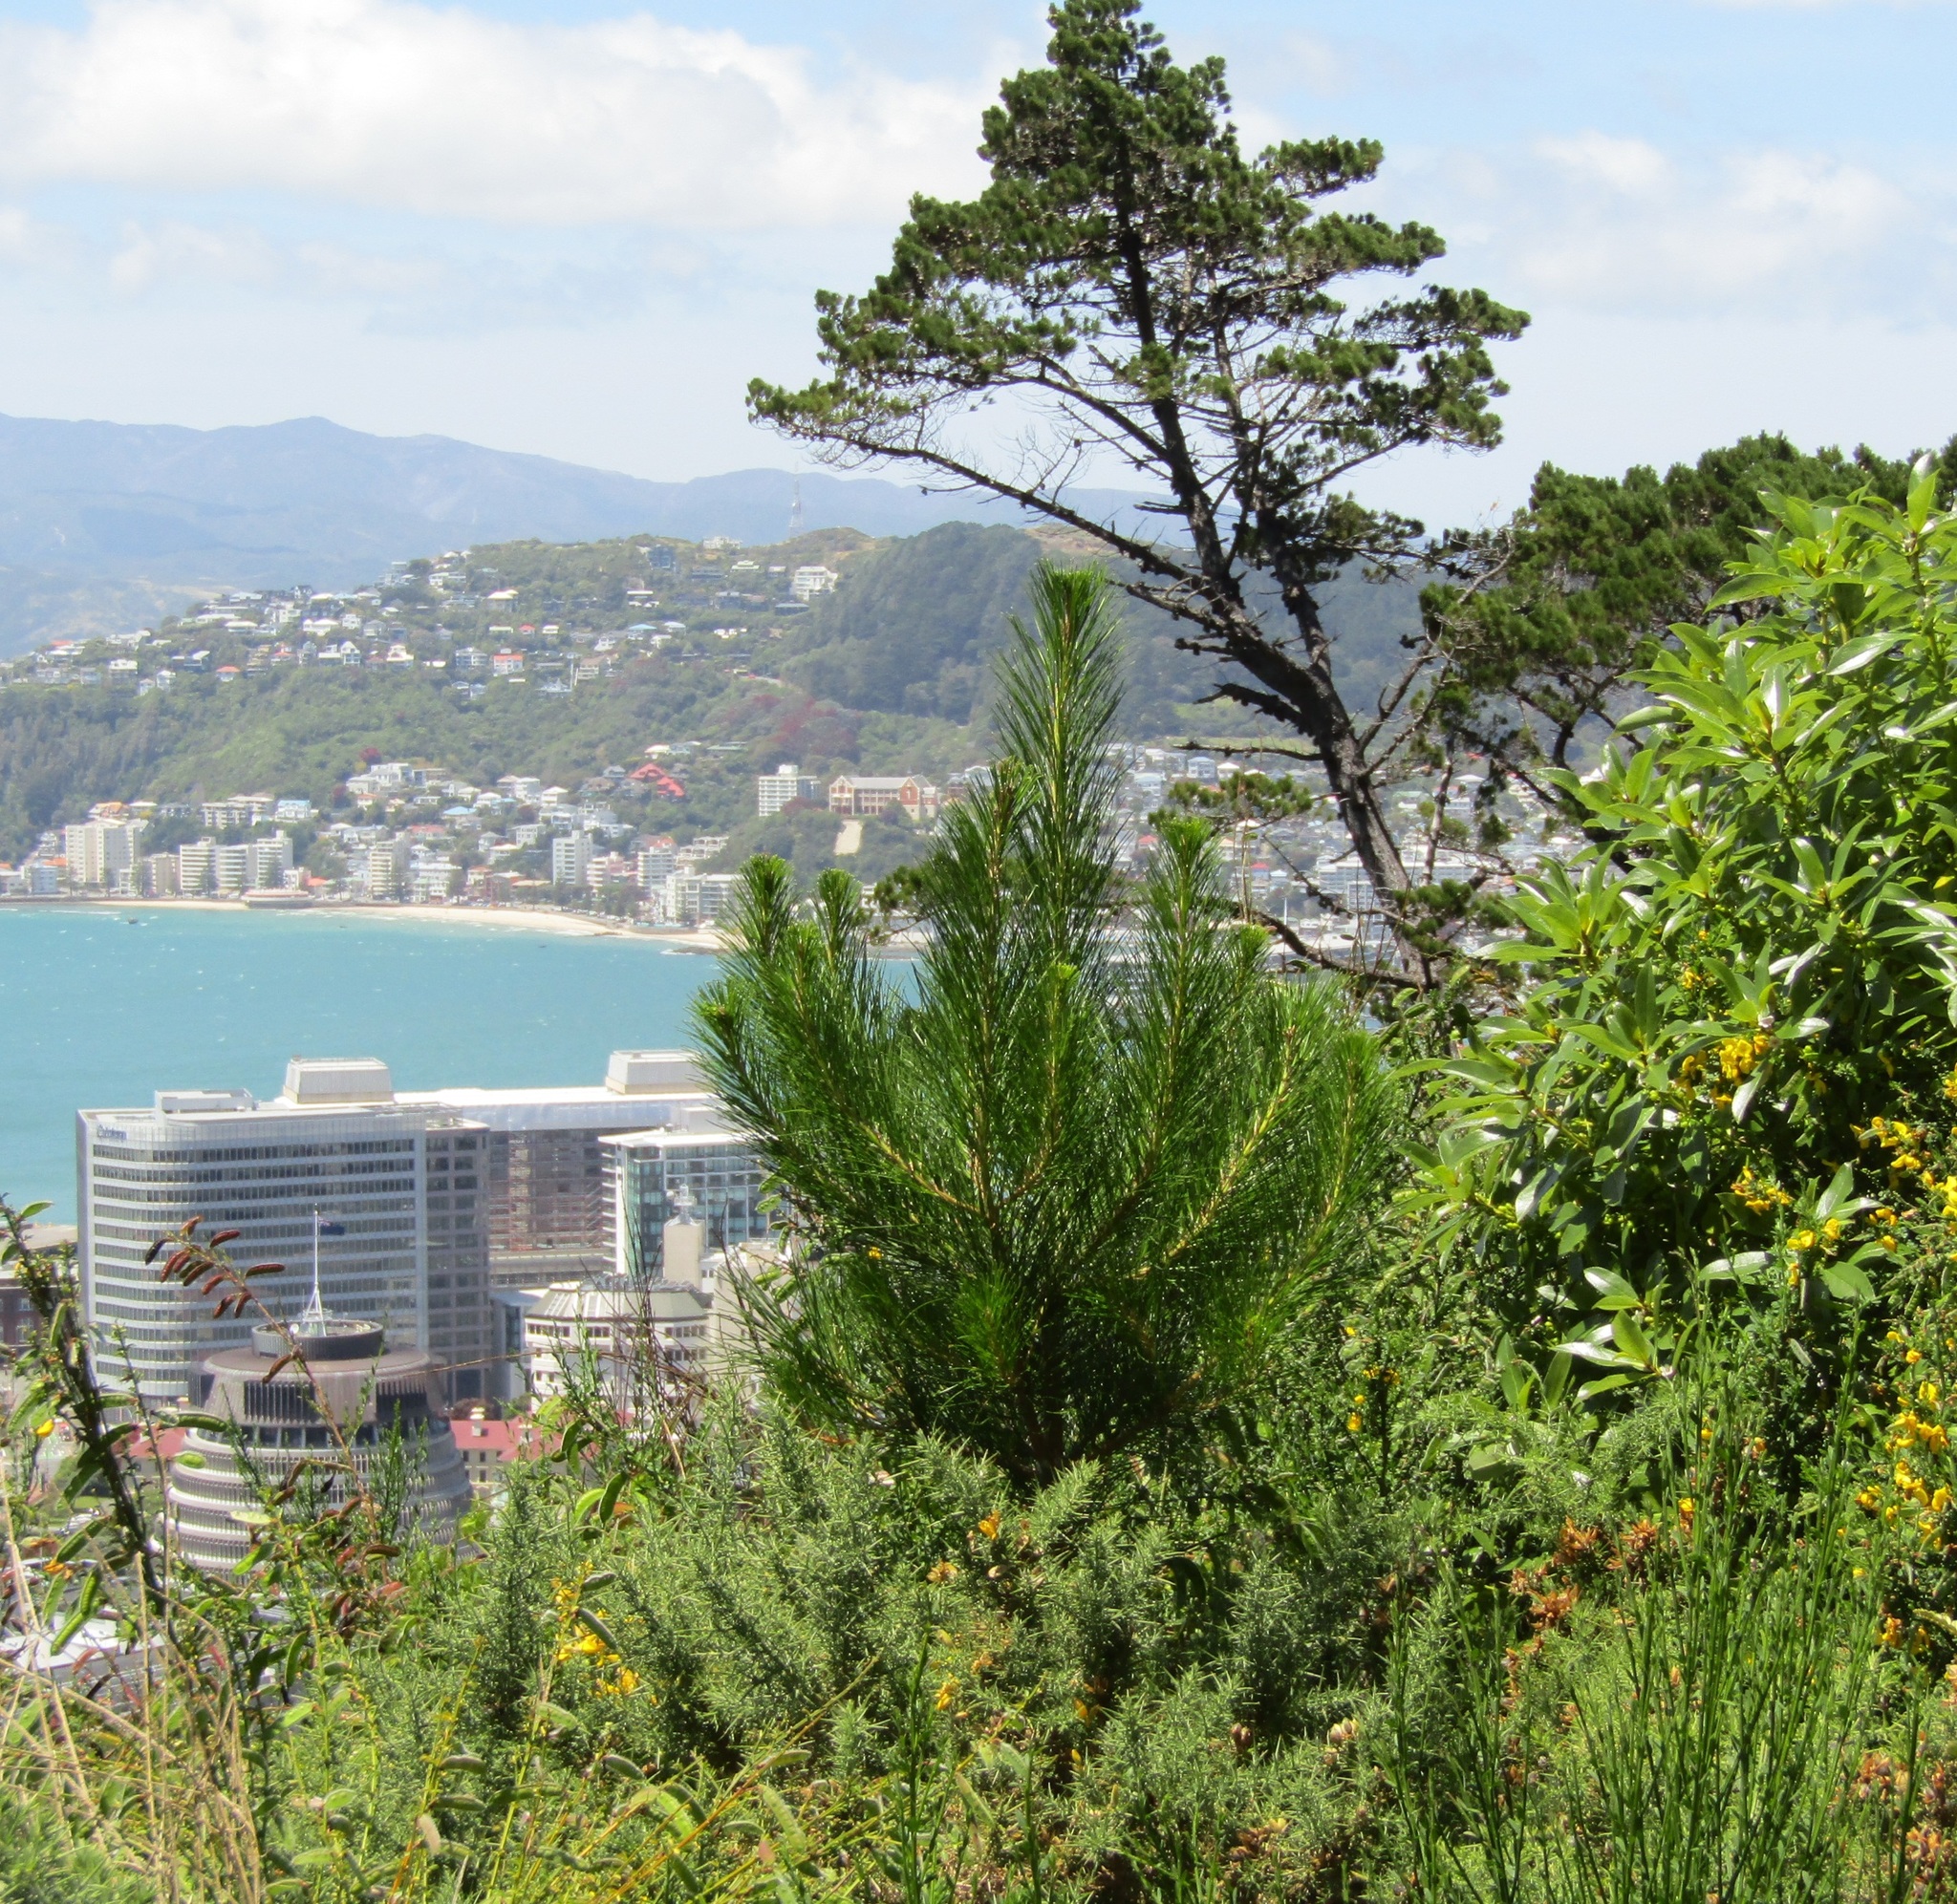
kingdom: Plantae
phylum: Tracheophyta
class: Pinopsida
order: Pinales
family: Pinaceae
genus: Pinus
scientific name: Pinus radiata
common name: Monterey pine
